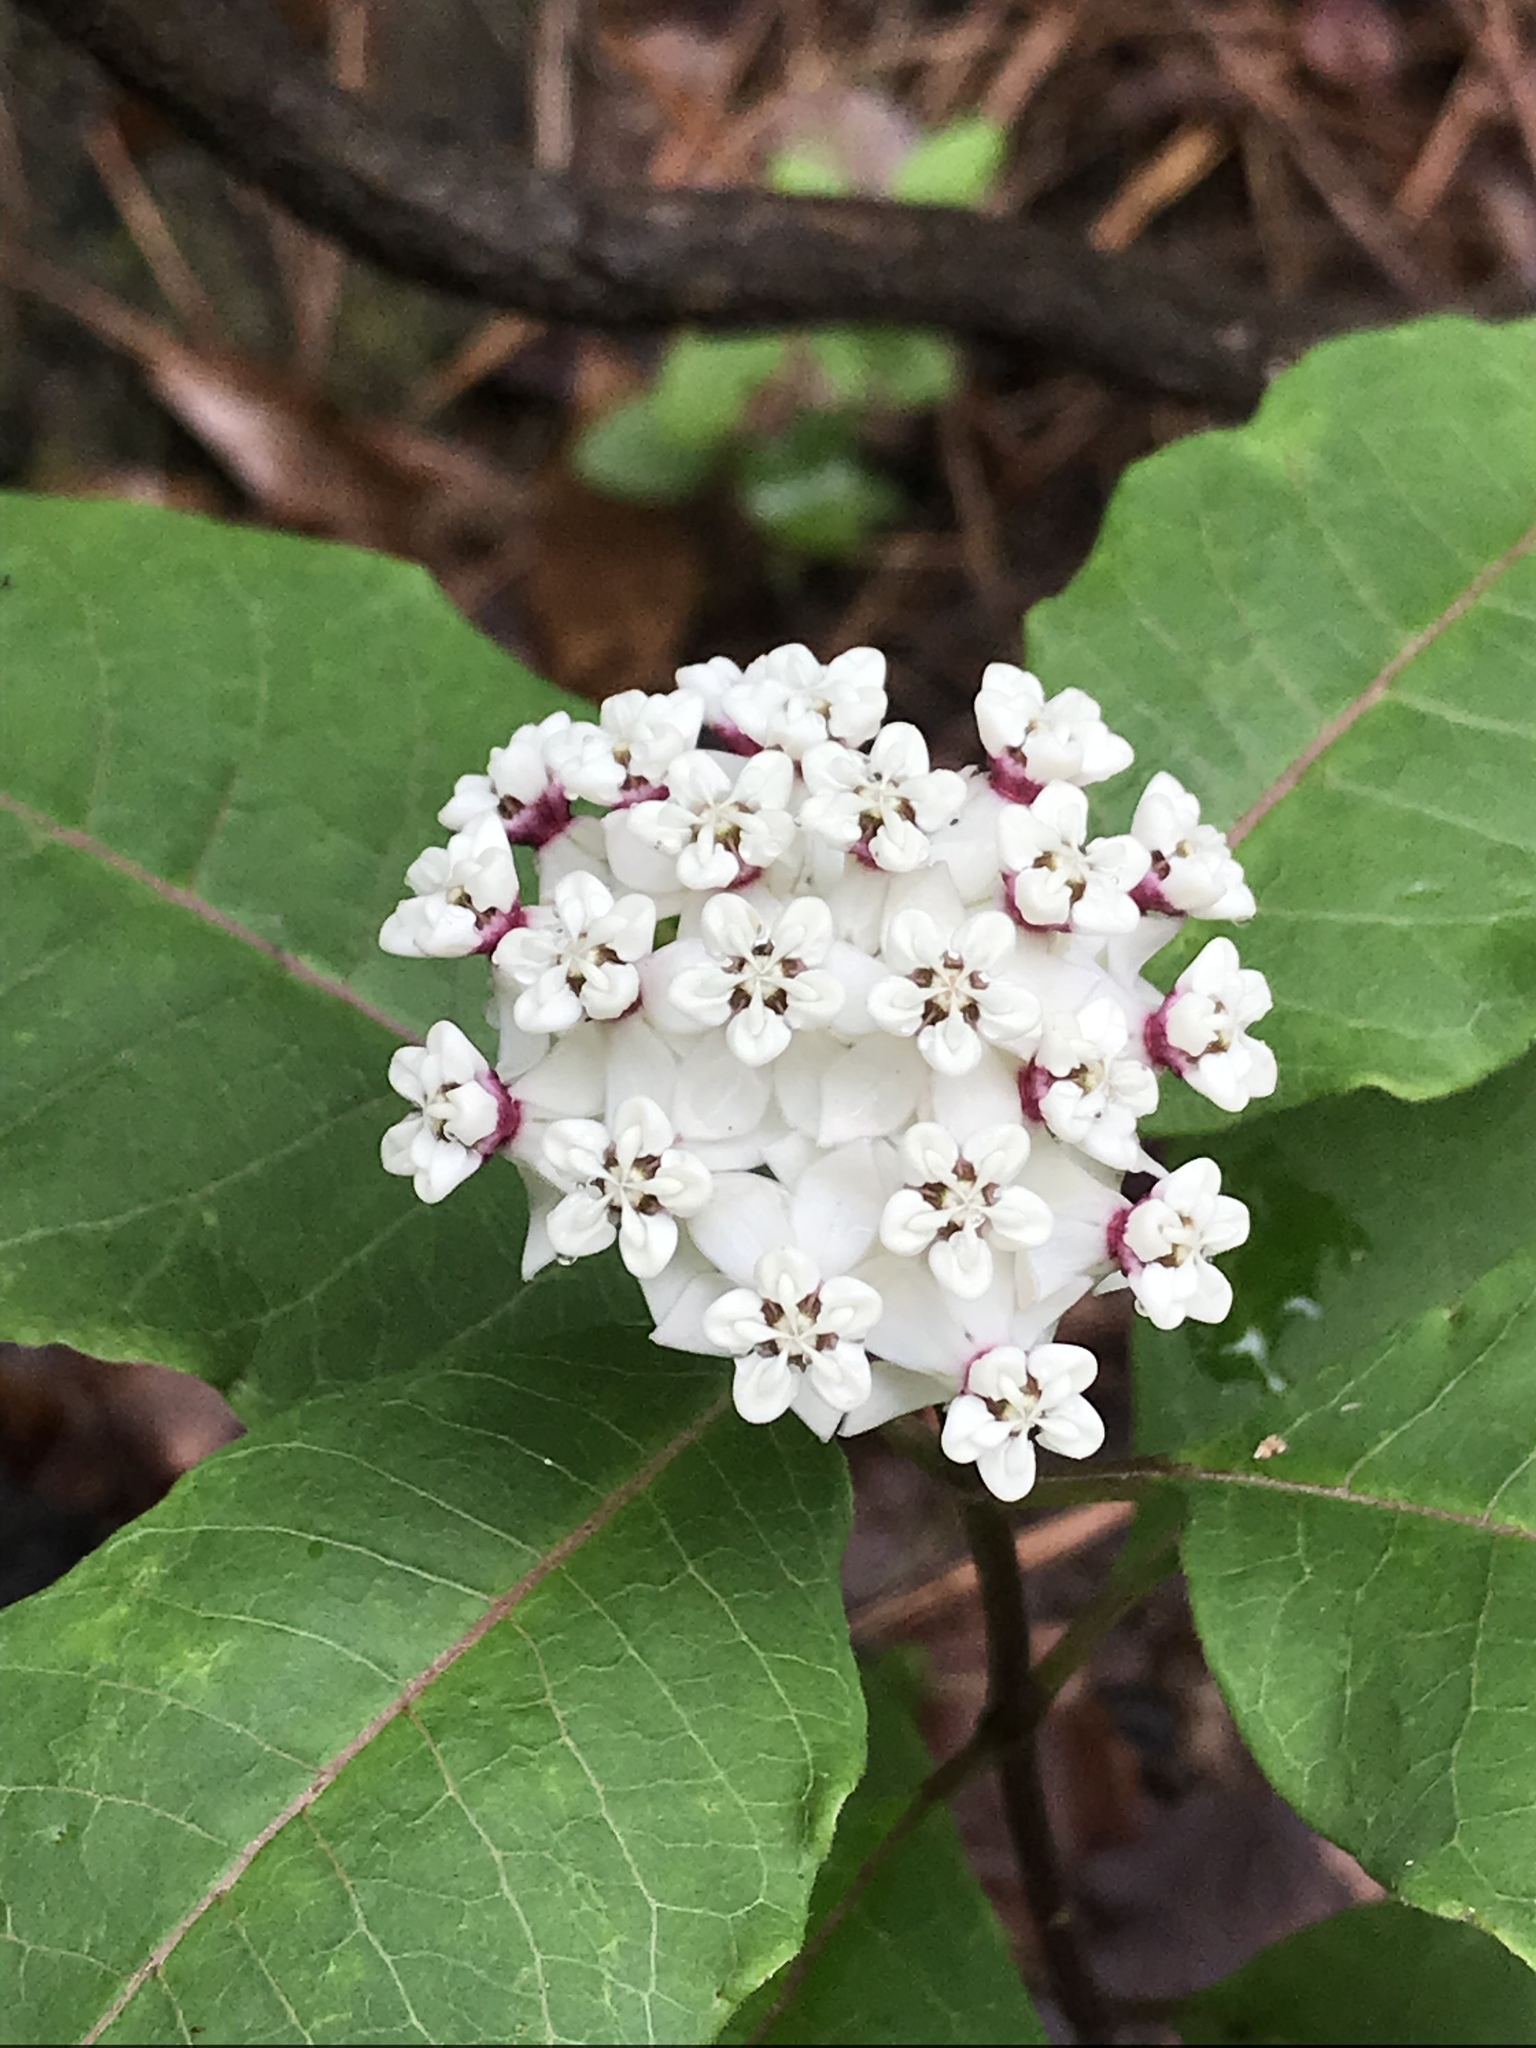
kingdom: Plantae
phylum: Tracheophyta
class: Magnoliopsida
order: Gentianales
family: Apocynaceae
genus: Asclepias
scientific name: Asclepias variegata
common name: Variegated milkweed
